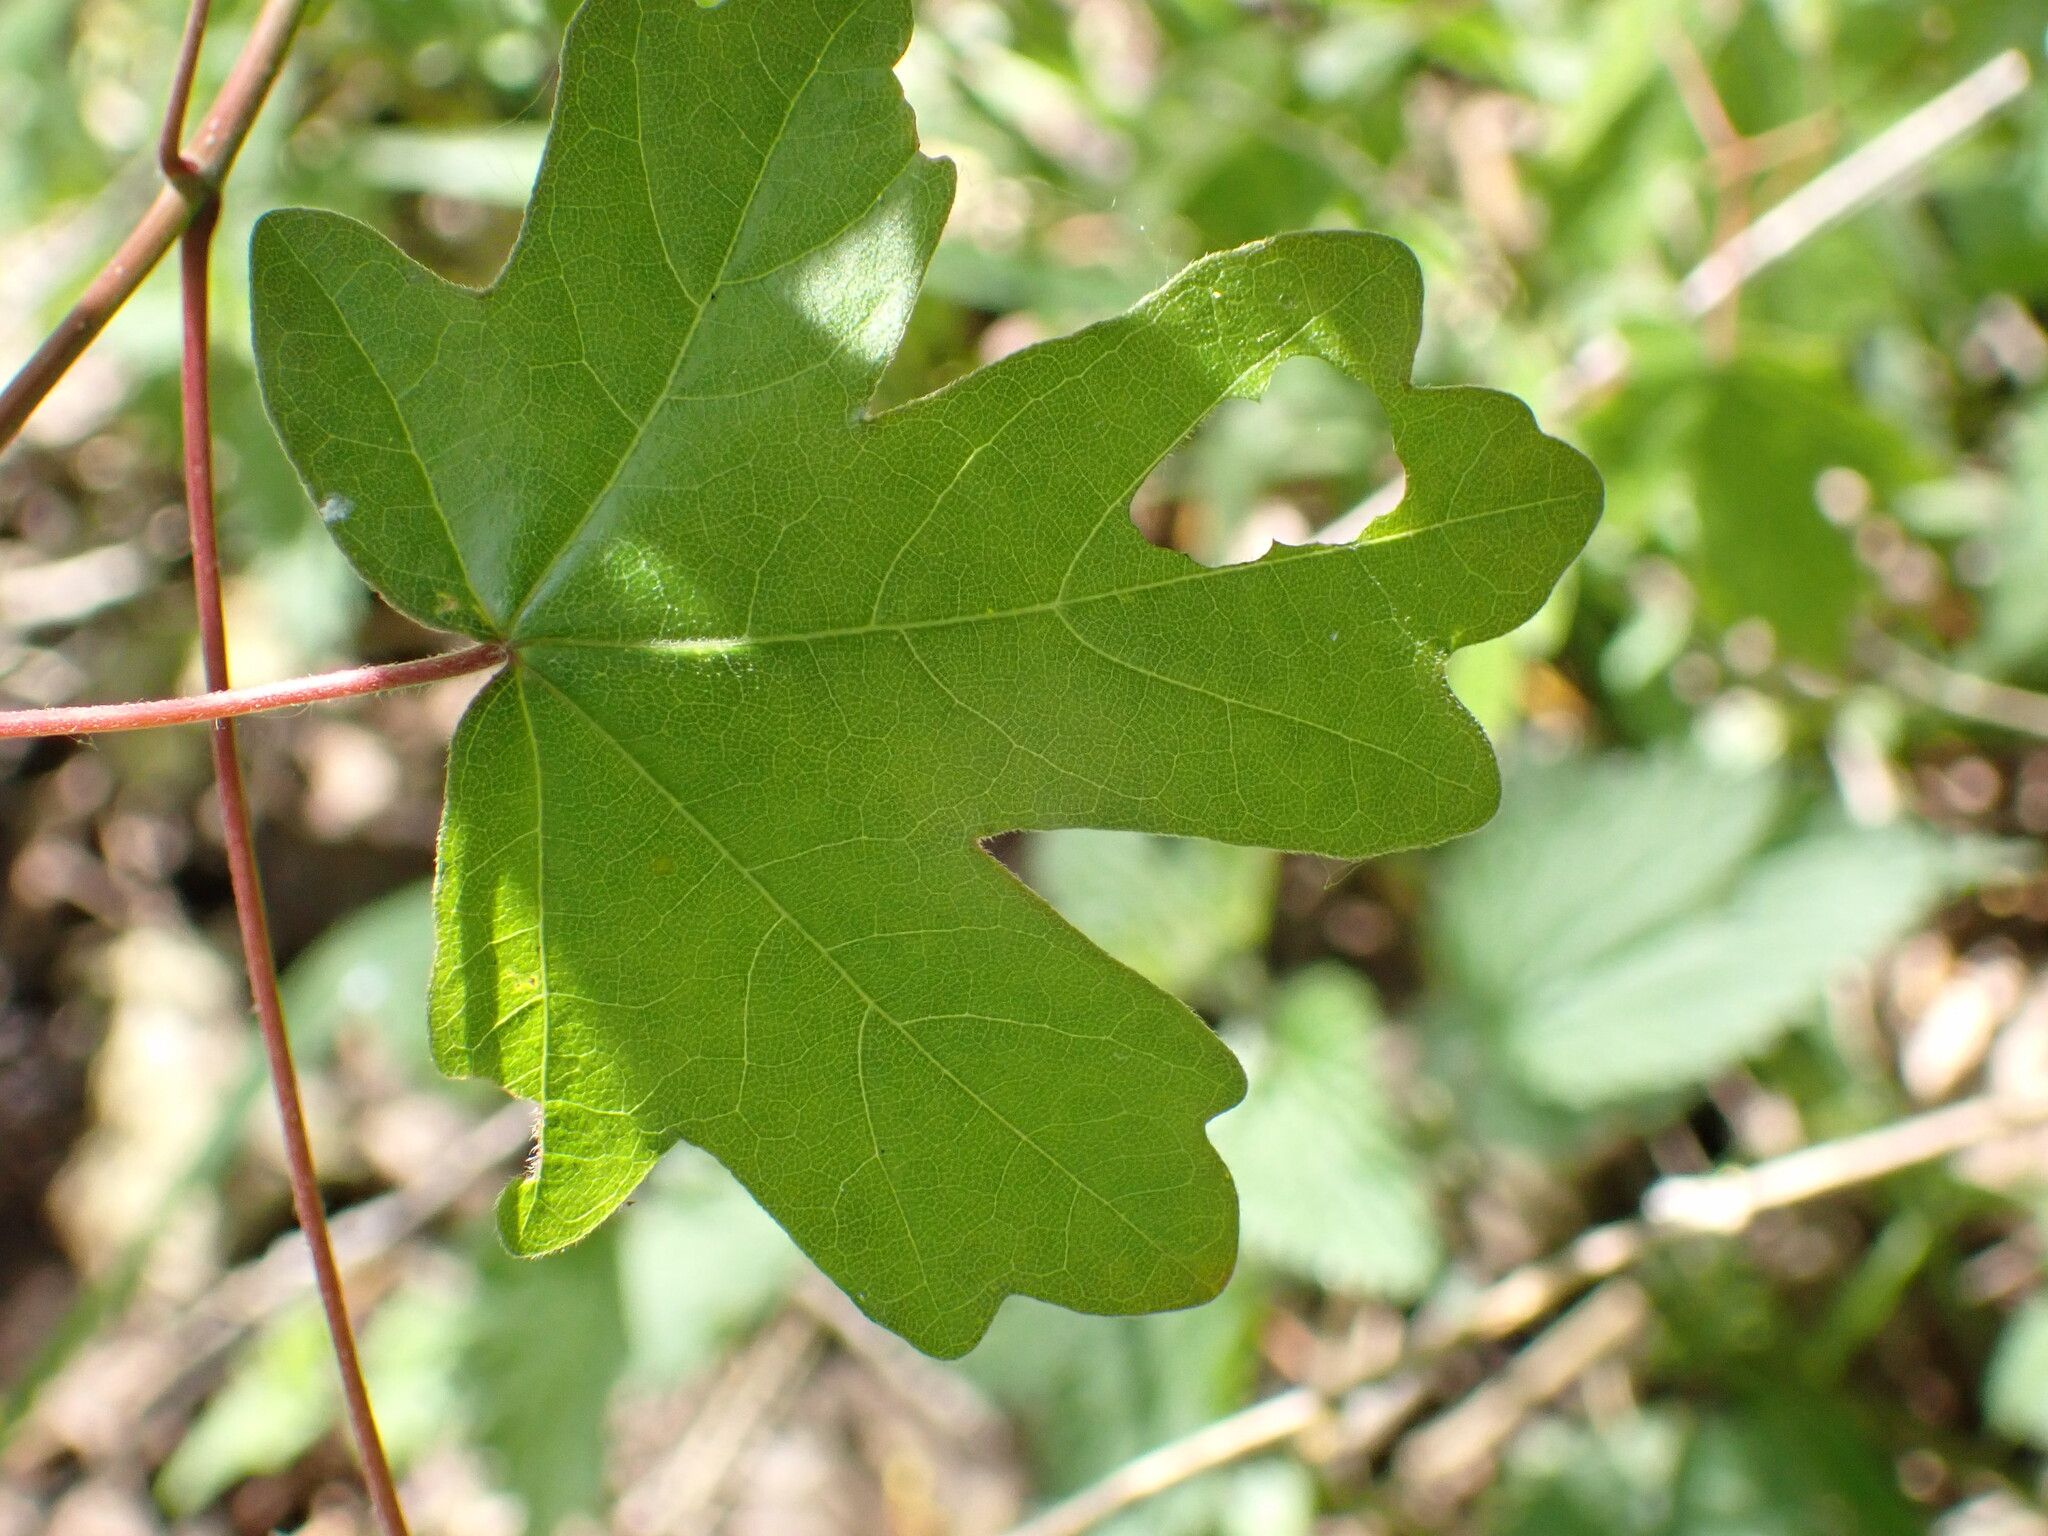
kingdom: Plantae
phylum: Tracheophyta
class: Magnoliopsida
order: Sapindales
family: Sapindaceae
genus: Acer
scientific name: Acer campestre
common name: Field maple
